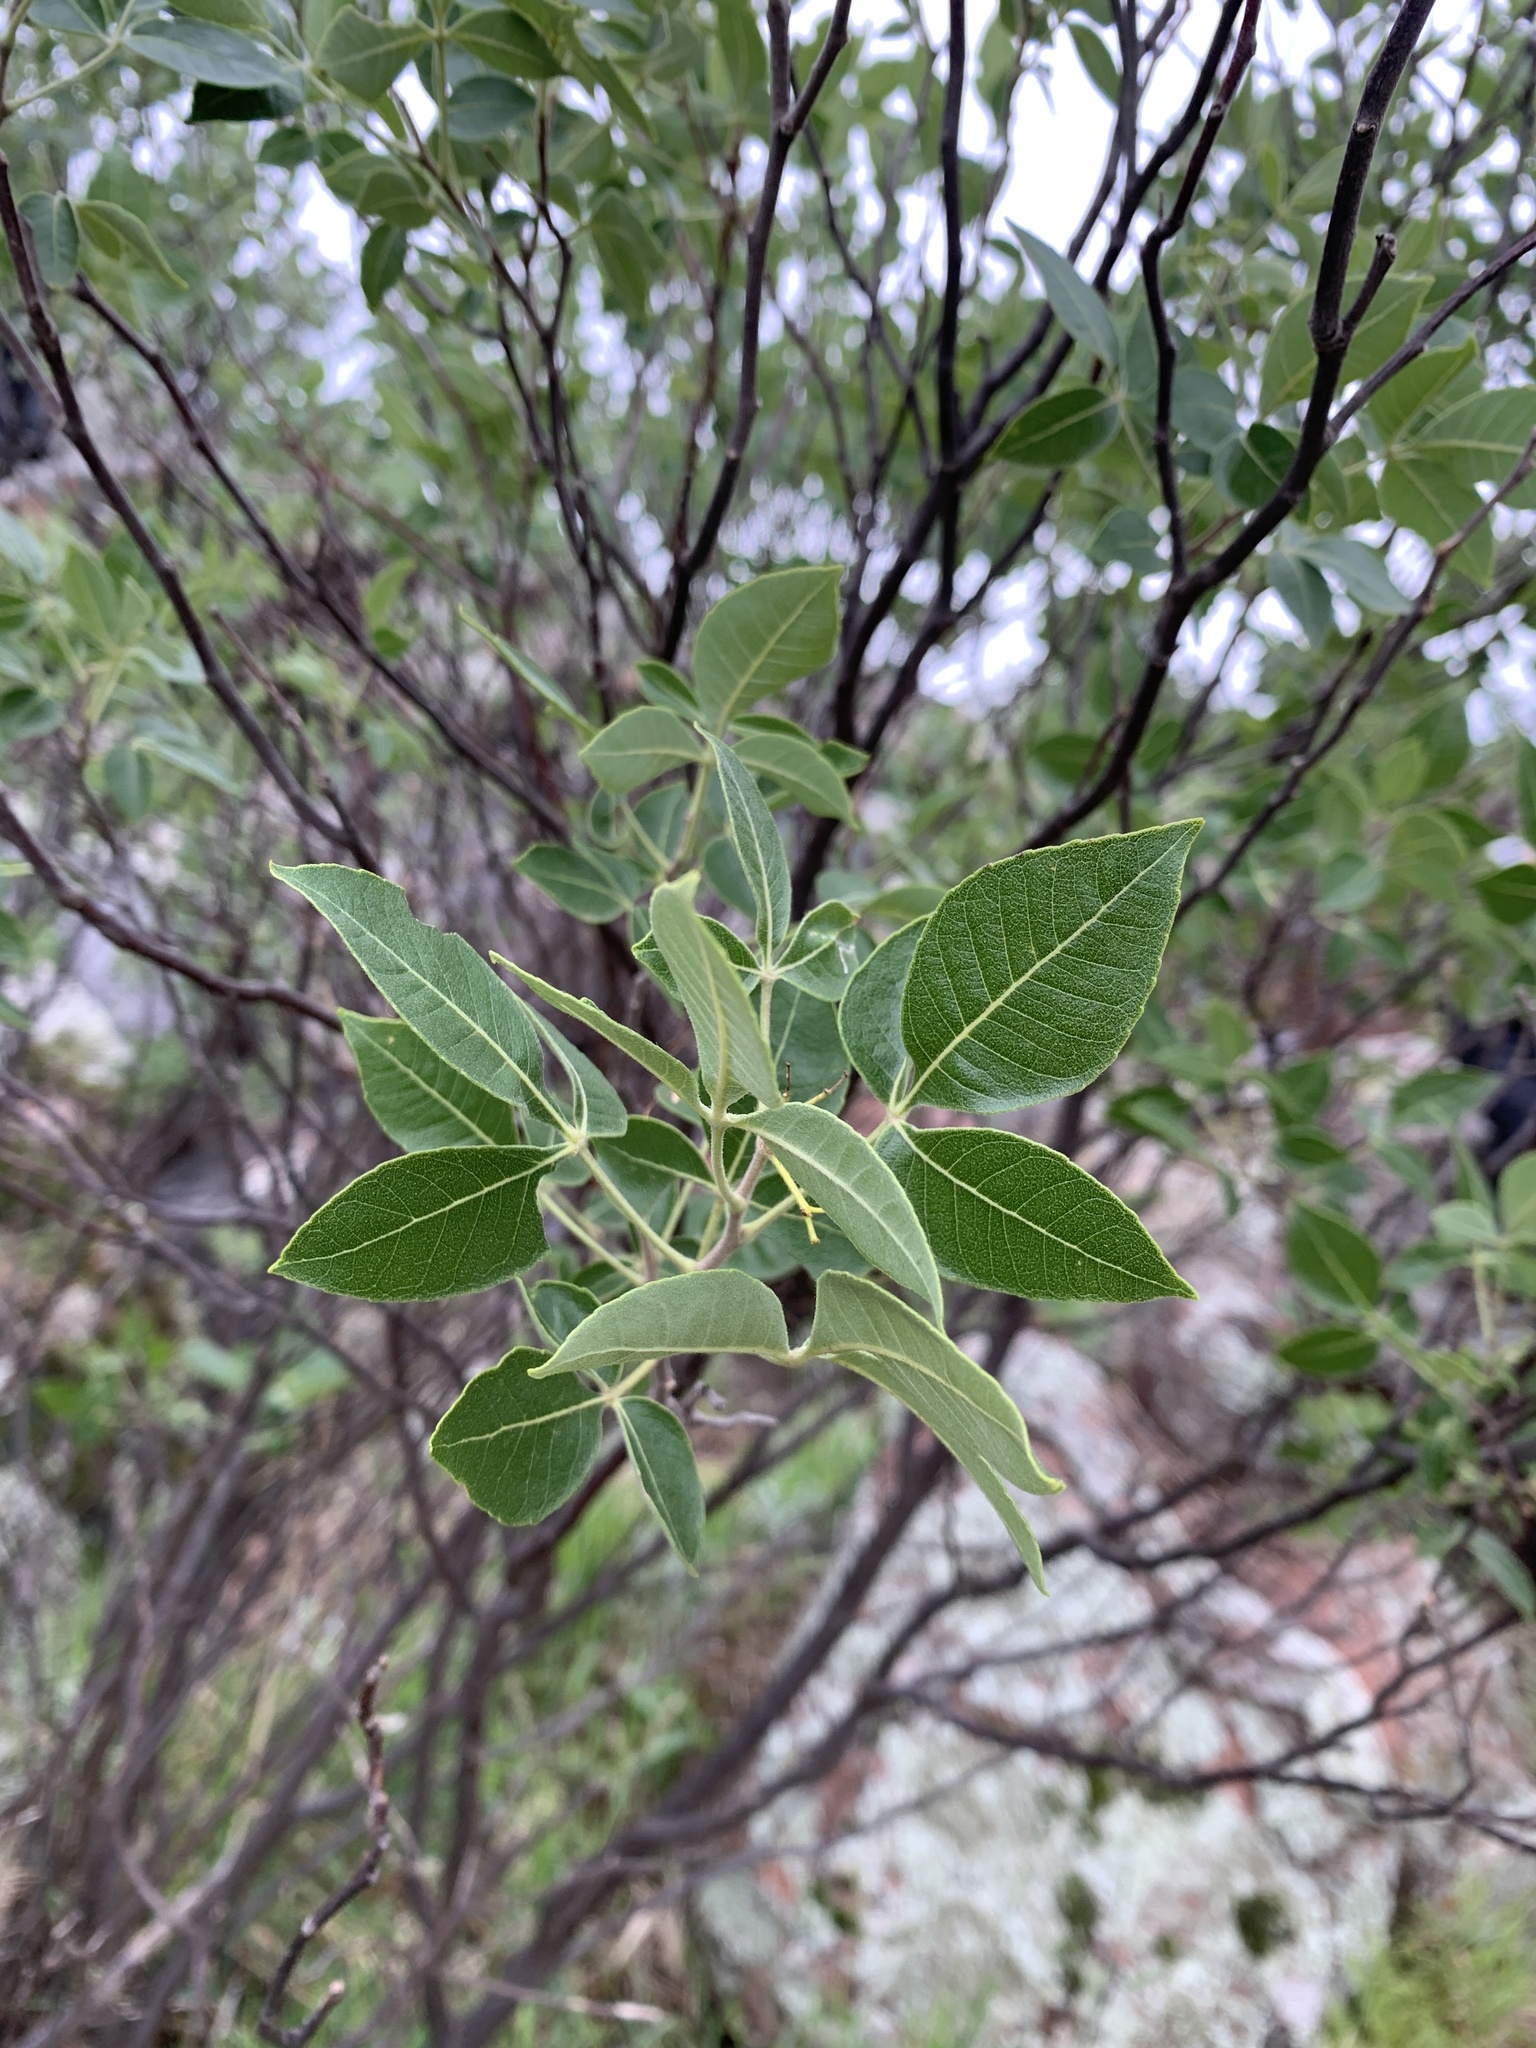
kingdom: Plantae
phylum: Tracheophyta
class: Magnoliopsida
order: Sapindales
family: Rutaceae
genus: Ptelea
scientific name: Ptelea trifoliata
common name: Common hop-tree
